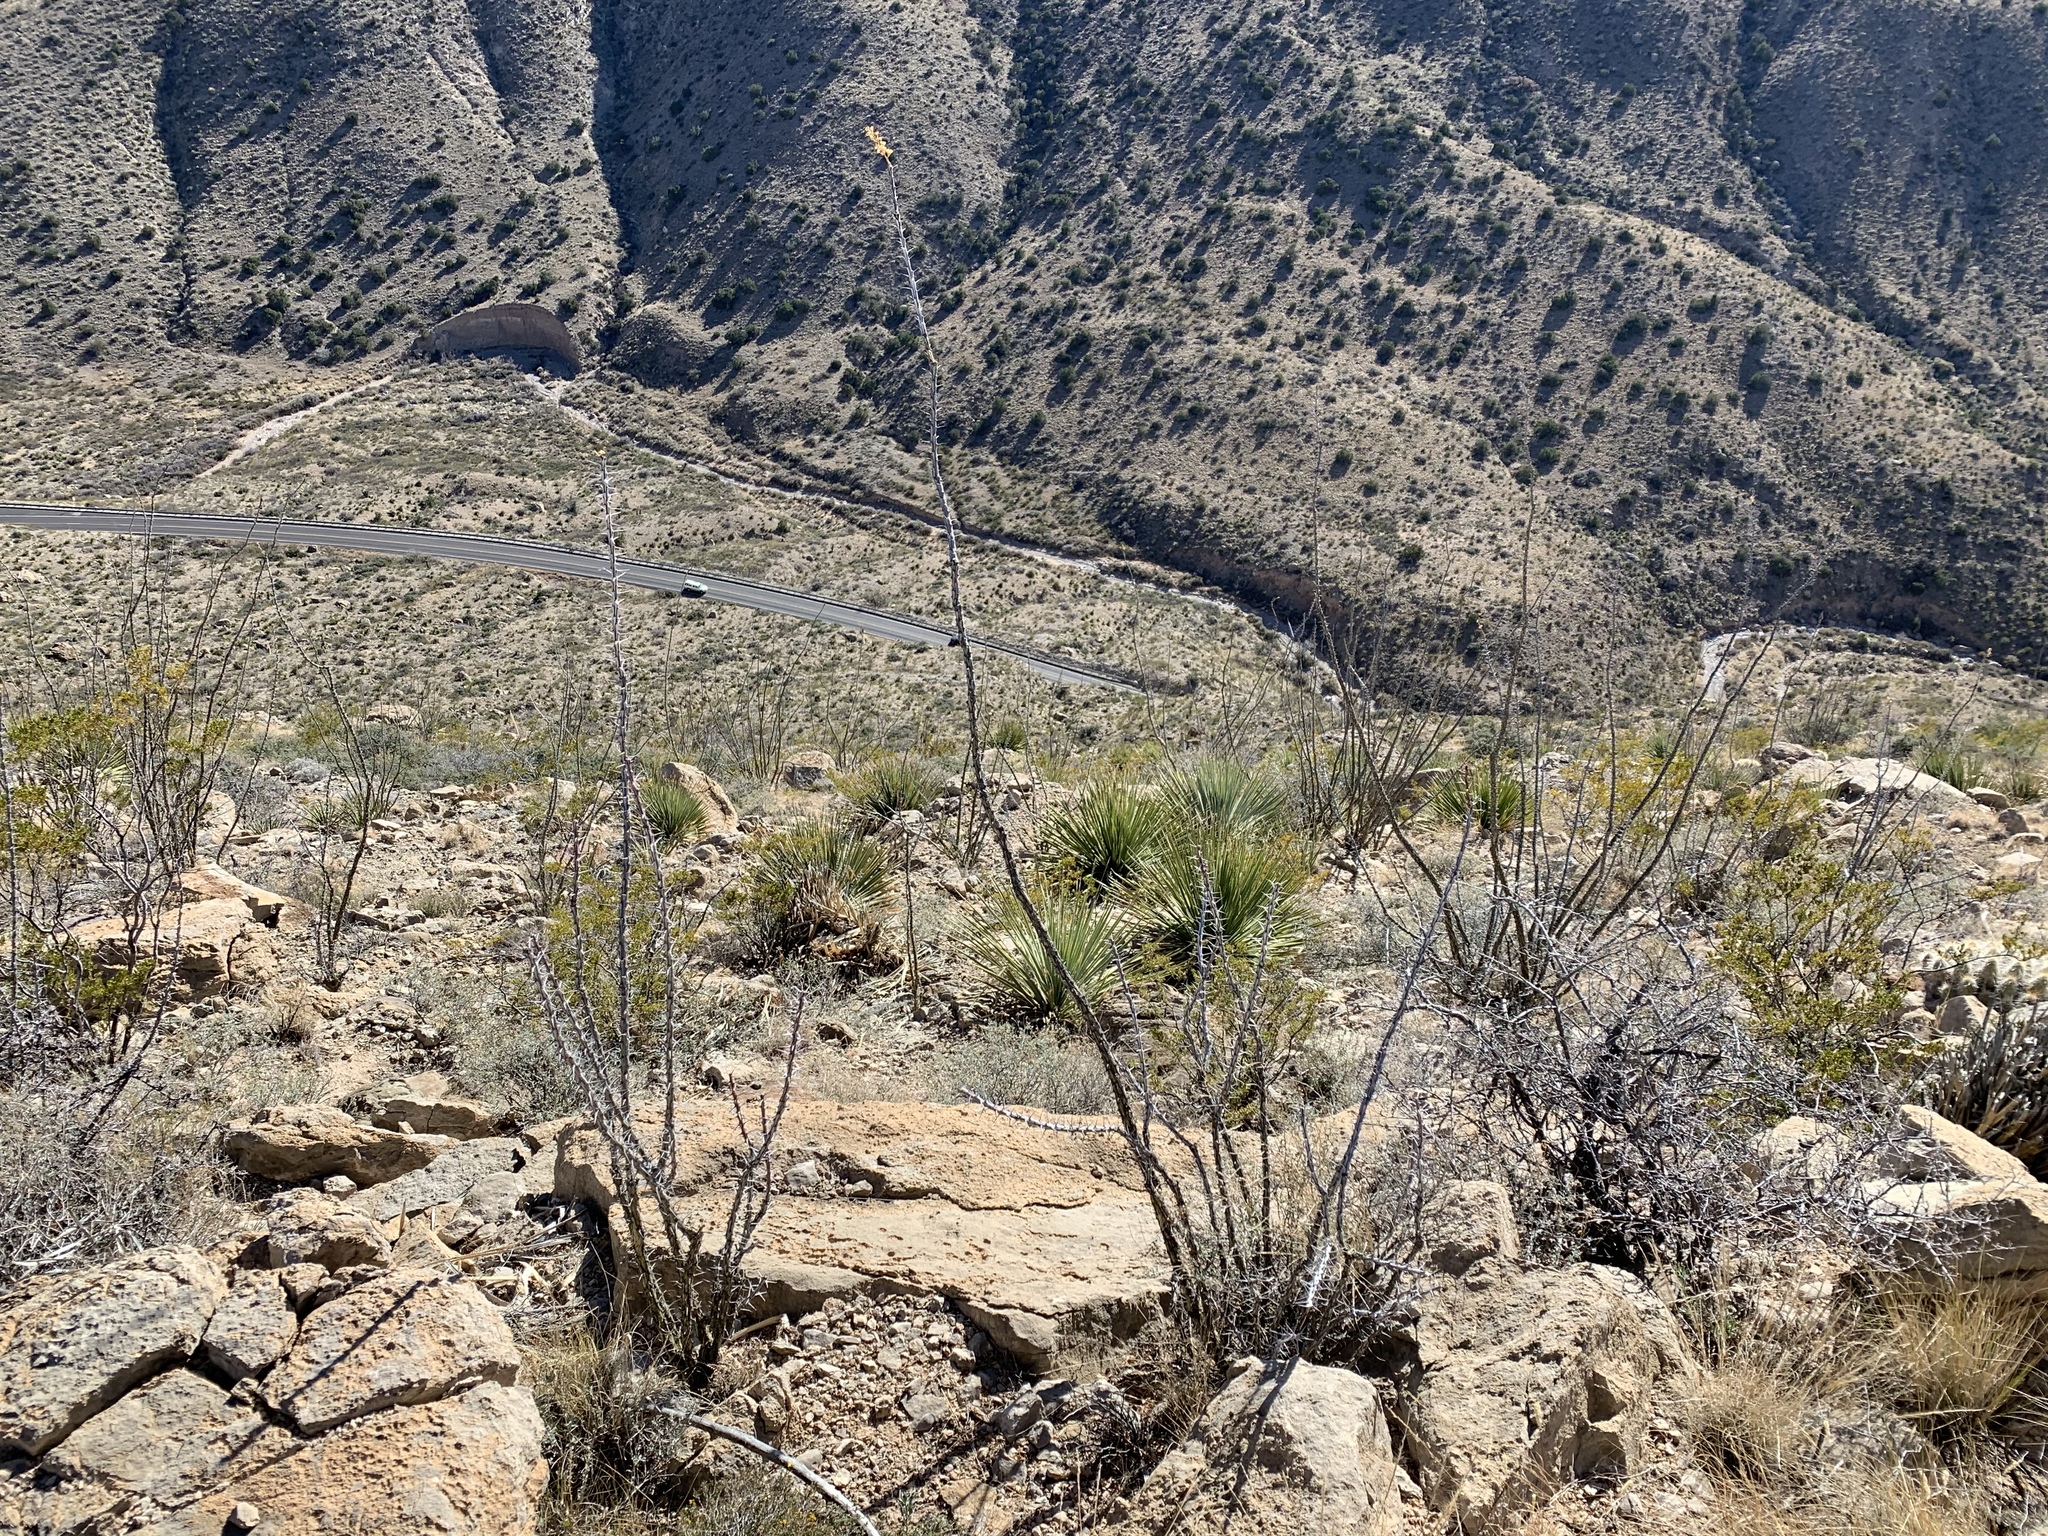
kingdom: Plantae
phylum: Tracheophyta
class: Magnoliopsida
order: Ericales
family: Fouquieriaceae
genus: Fouquieria
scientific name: Fouquieria splendens
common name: Vine-cactus
